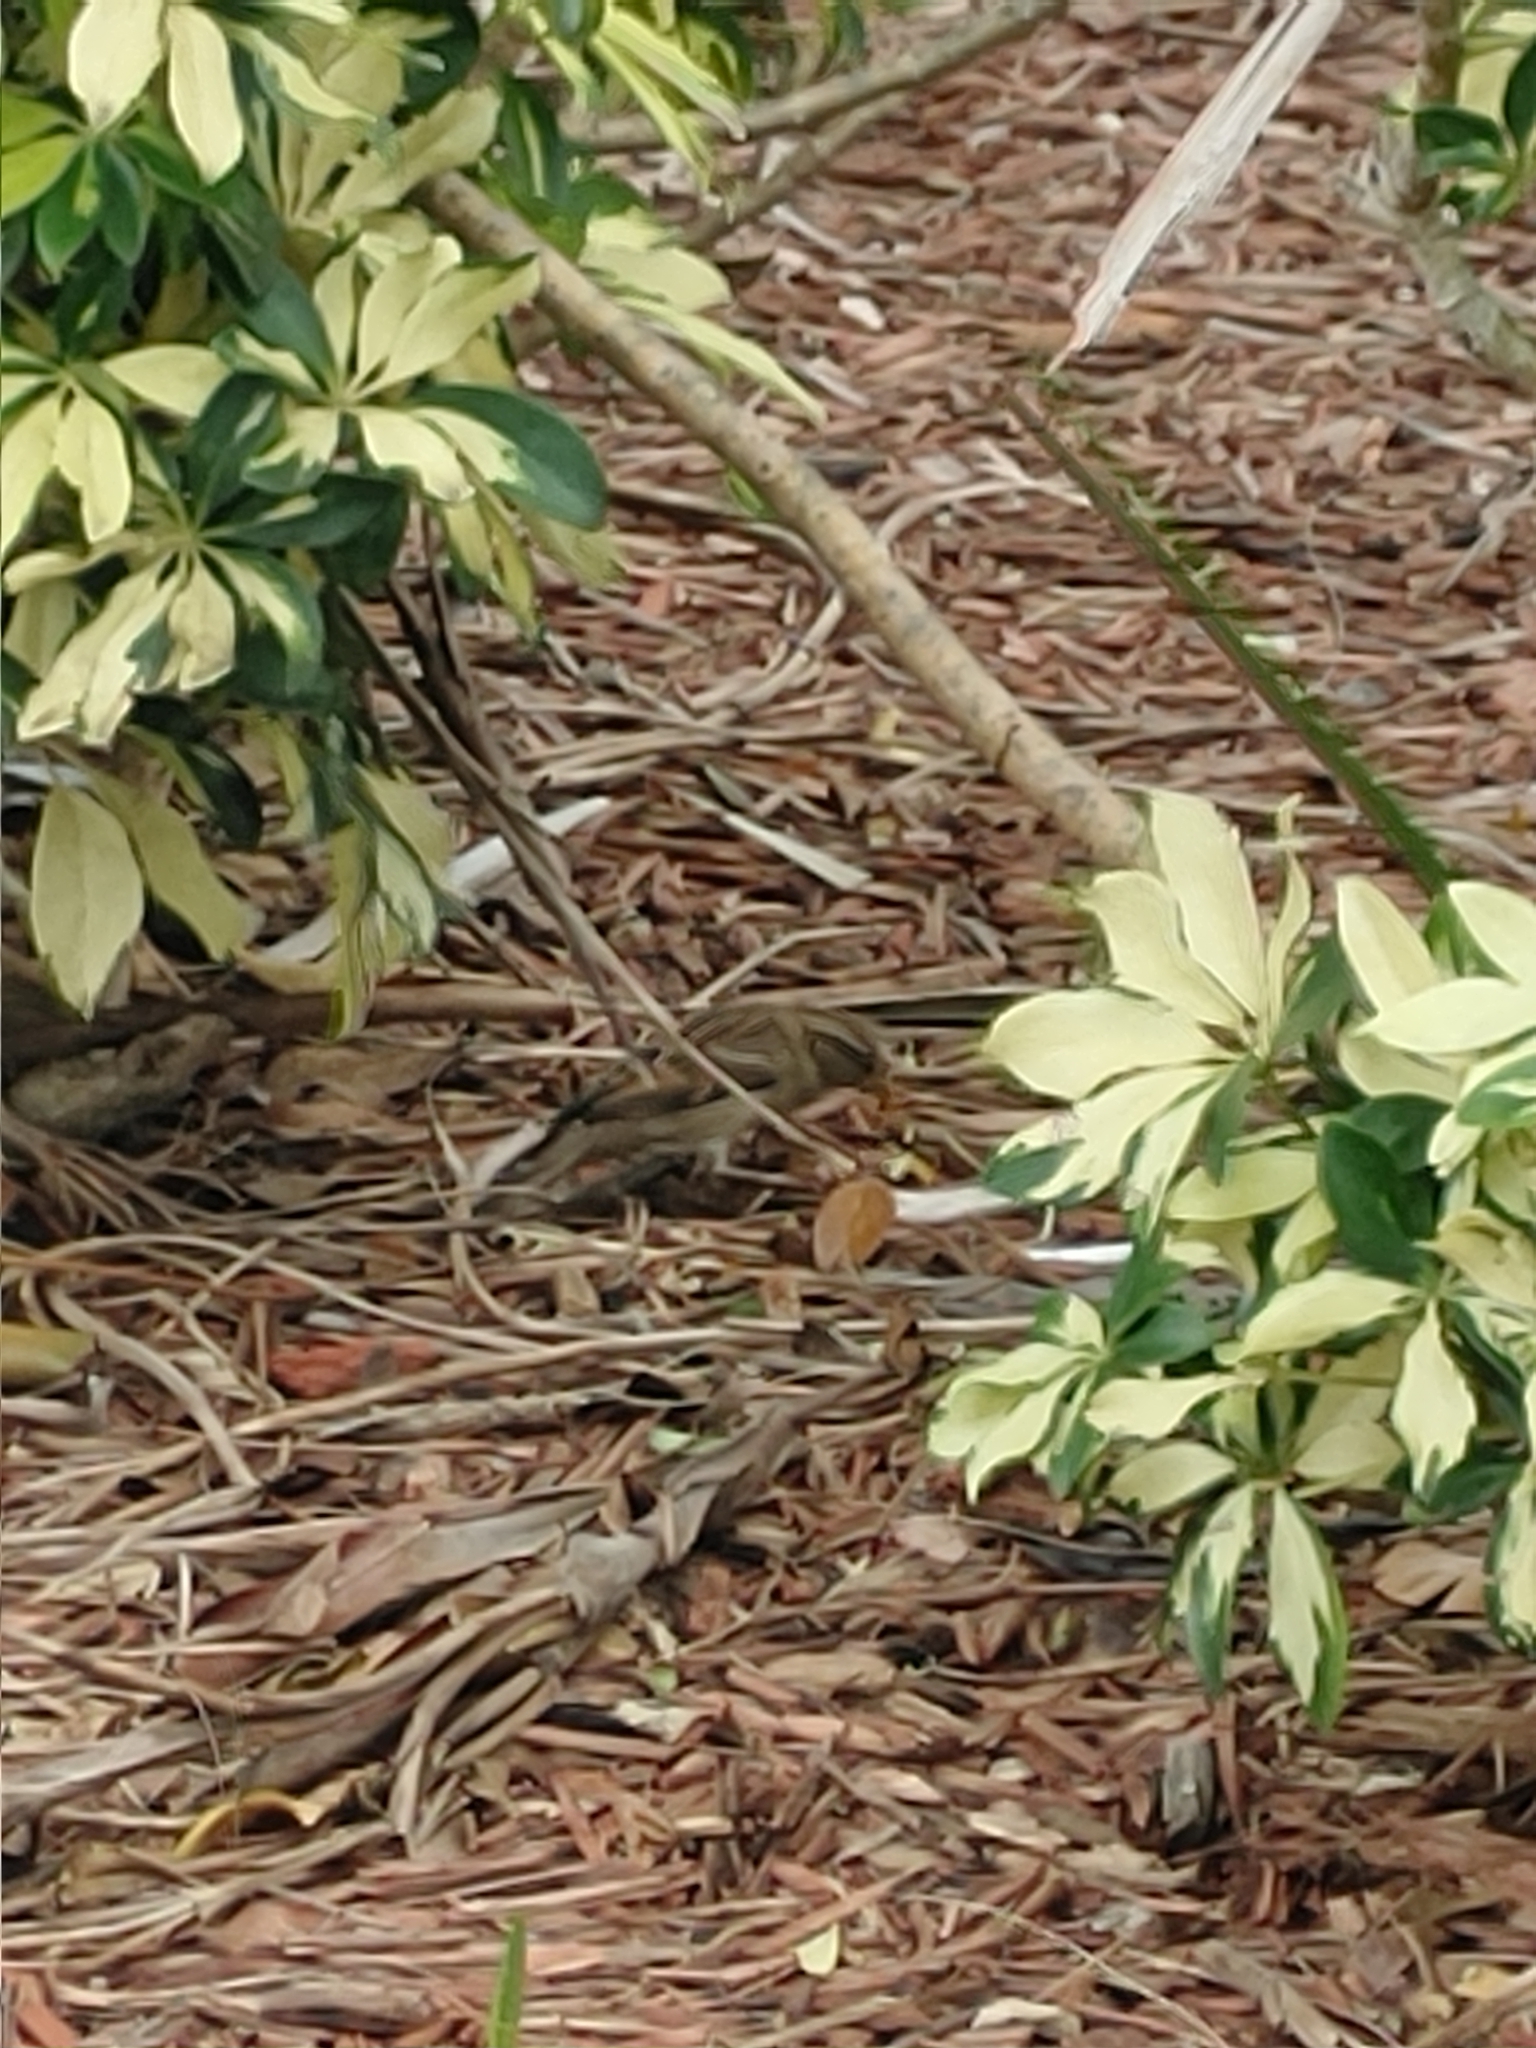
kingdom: Animalia
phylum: Chordata
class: Aves
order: Passeriformes
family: Passeridae
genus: Passer
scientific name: Passer domesticus
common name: House sparrow
